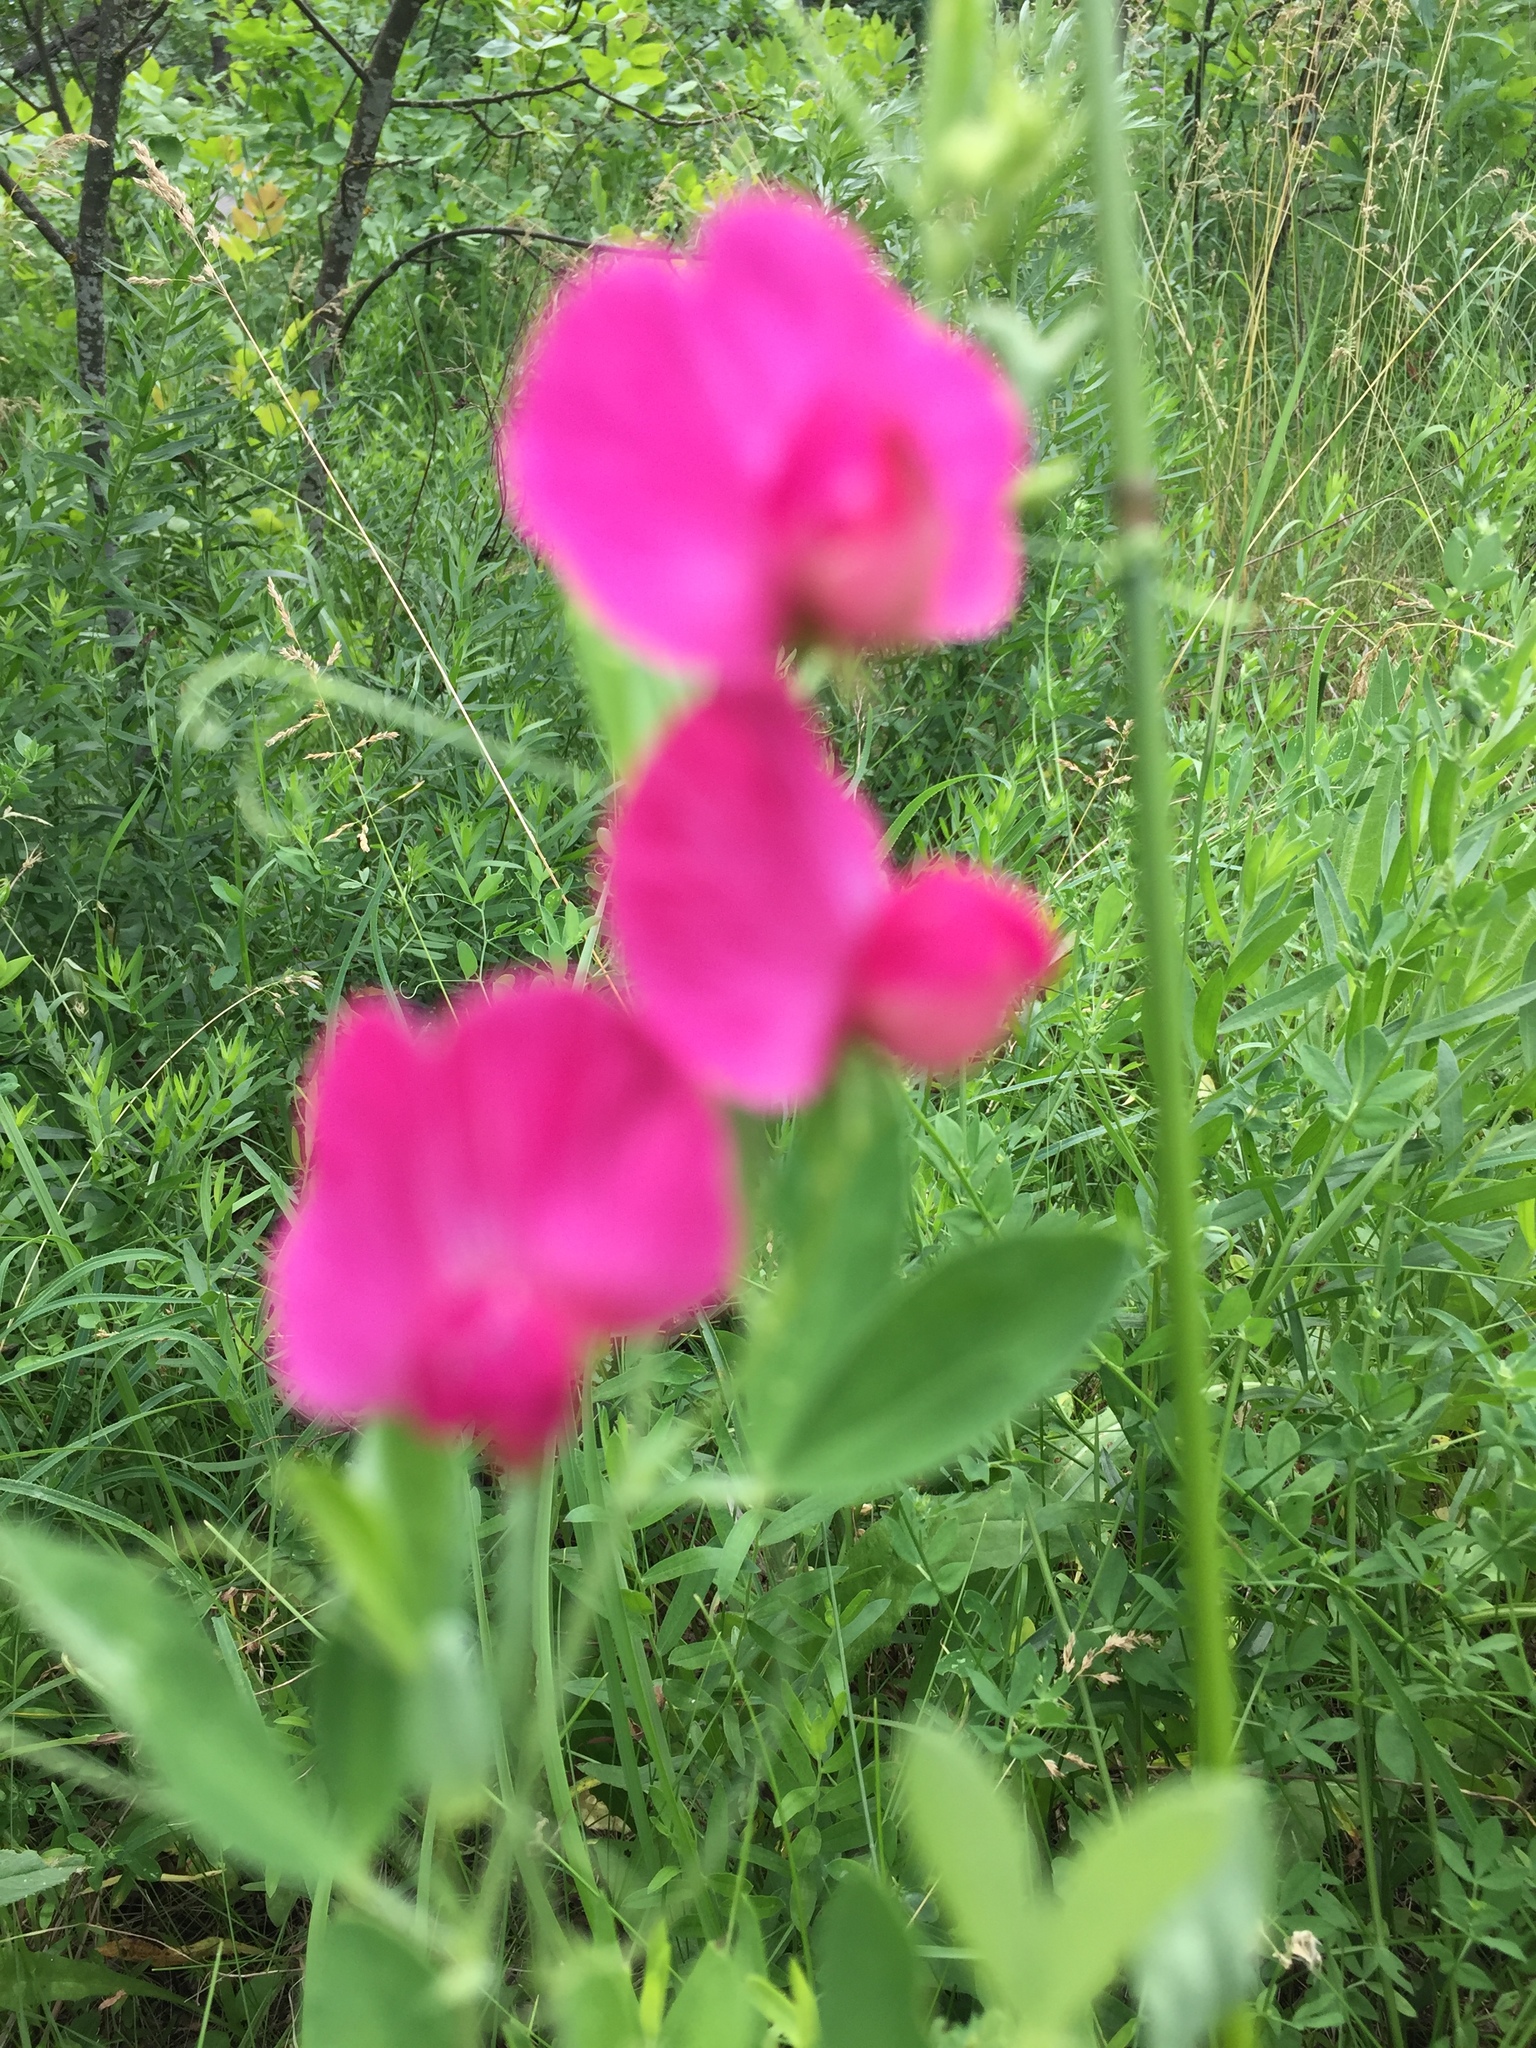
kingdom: Plantae
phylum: Tracheophyta
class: Magnoliopsida
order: Fabales
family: Fabaceae
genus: Lathyrus
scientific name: Lathyrus tuberosus
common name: Tuberous pea
